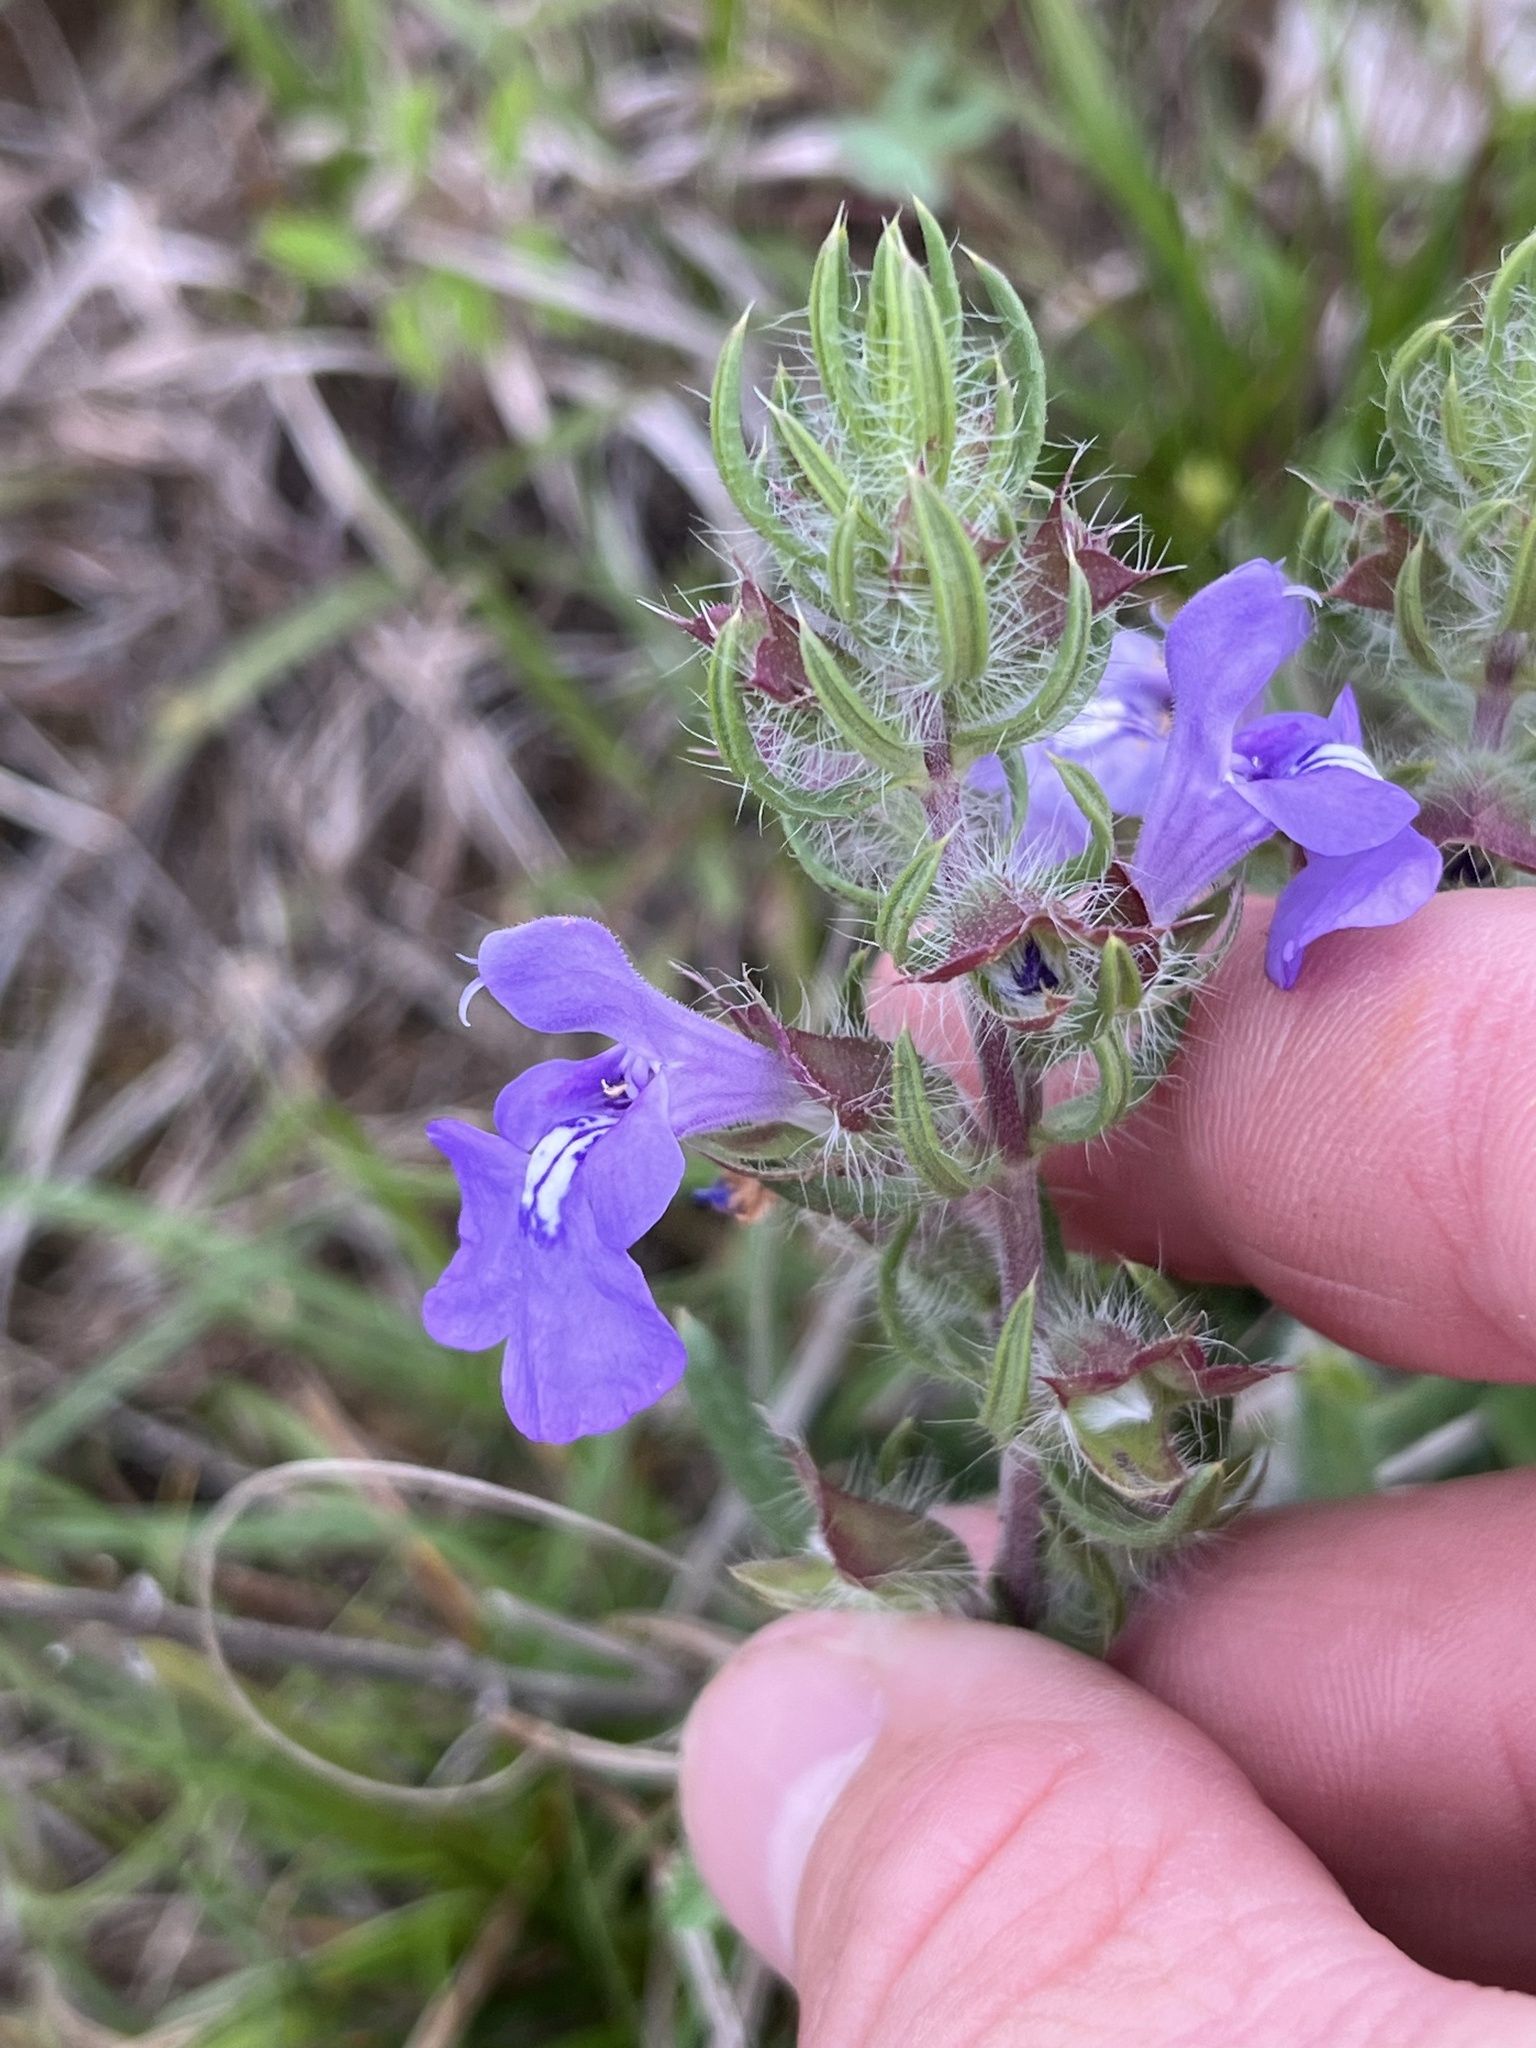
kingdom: Plantae
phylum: Tracheophyta
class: Magnoliopsida
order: Lamiales
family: Lamiaceae
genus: Salvia
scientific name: Salvia texana
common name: Texas sage
